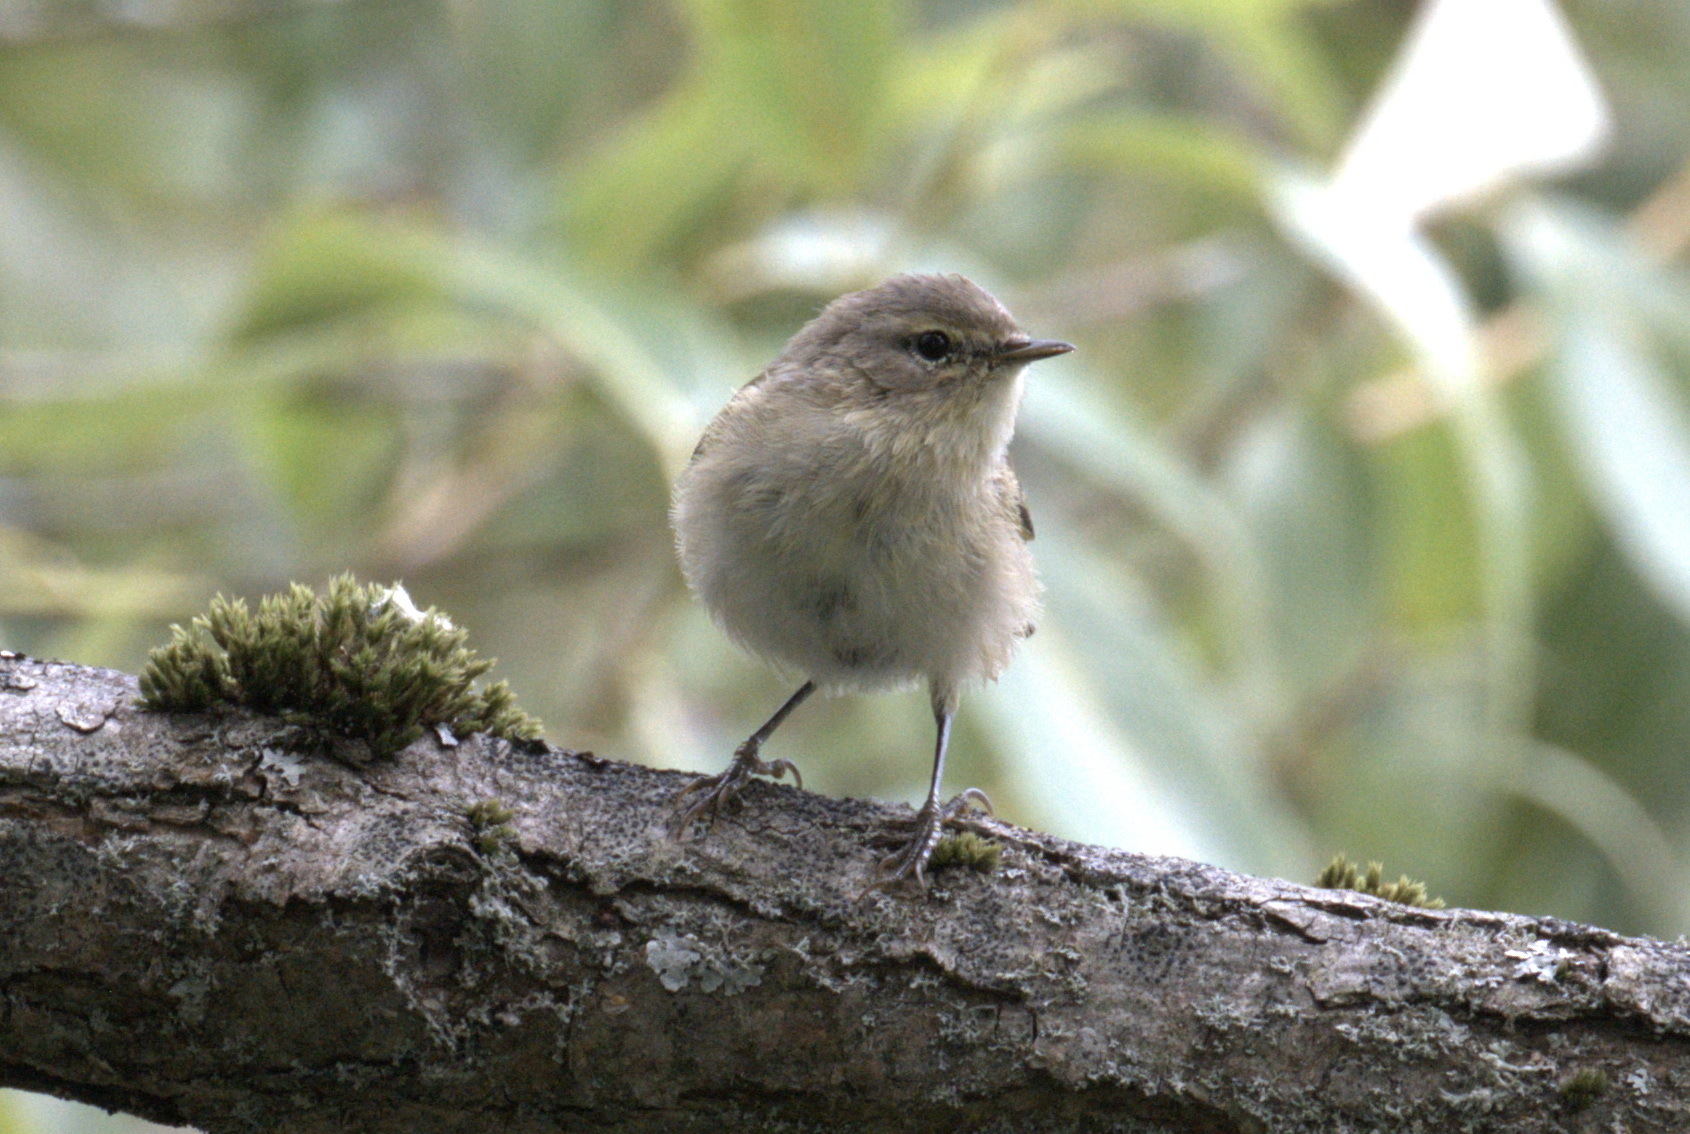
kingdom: Animalia
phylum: Chordata
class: Aves
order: Passeriformes
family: Phylloscopidae
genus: Phylloscopus
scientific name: Phylloscopus collybita
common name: Common chiffchaff
